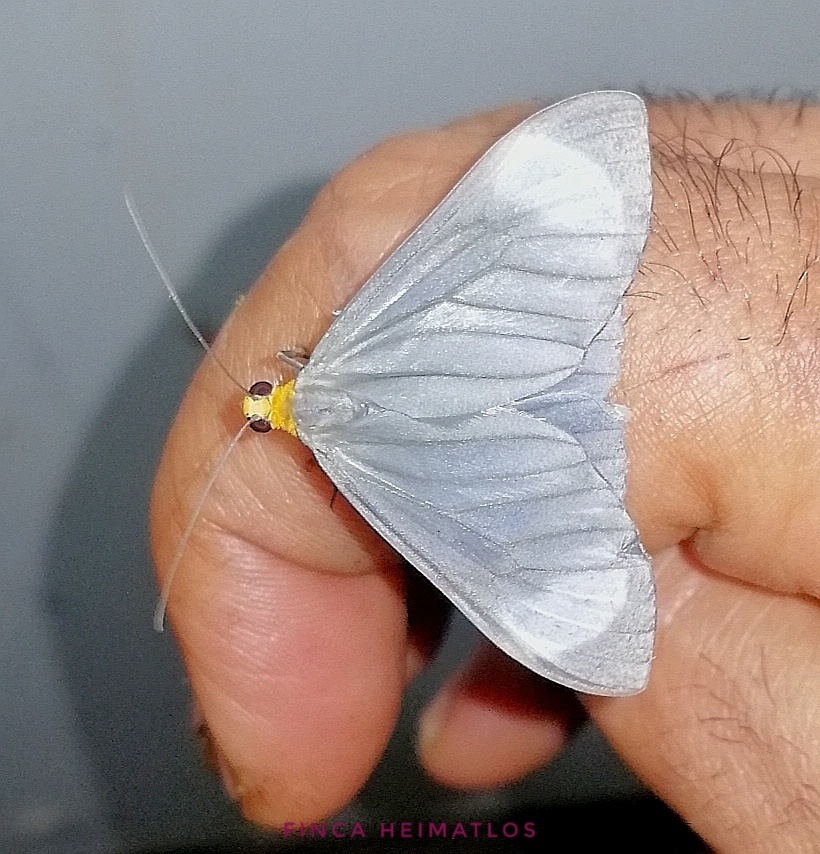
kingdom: Animalia
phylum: Arthropoda
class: Insecta
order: Lepidoptera
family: Geometridae
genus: Crocypus
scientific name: Crocypus perlucidaria
